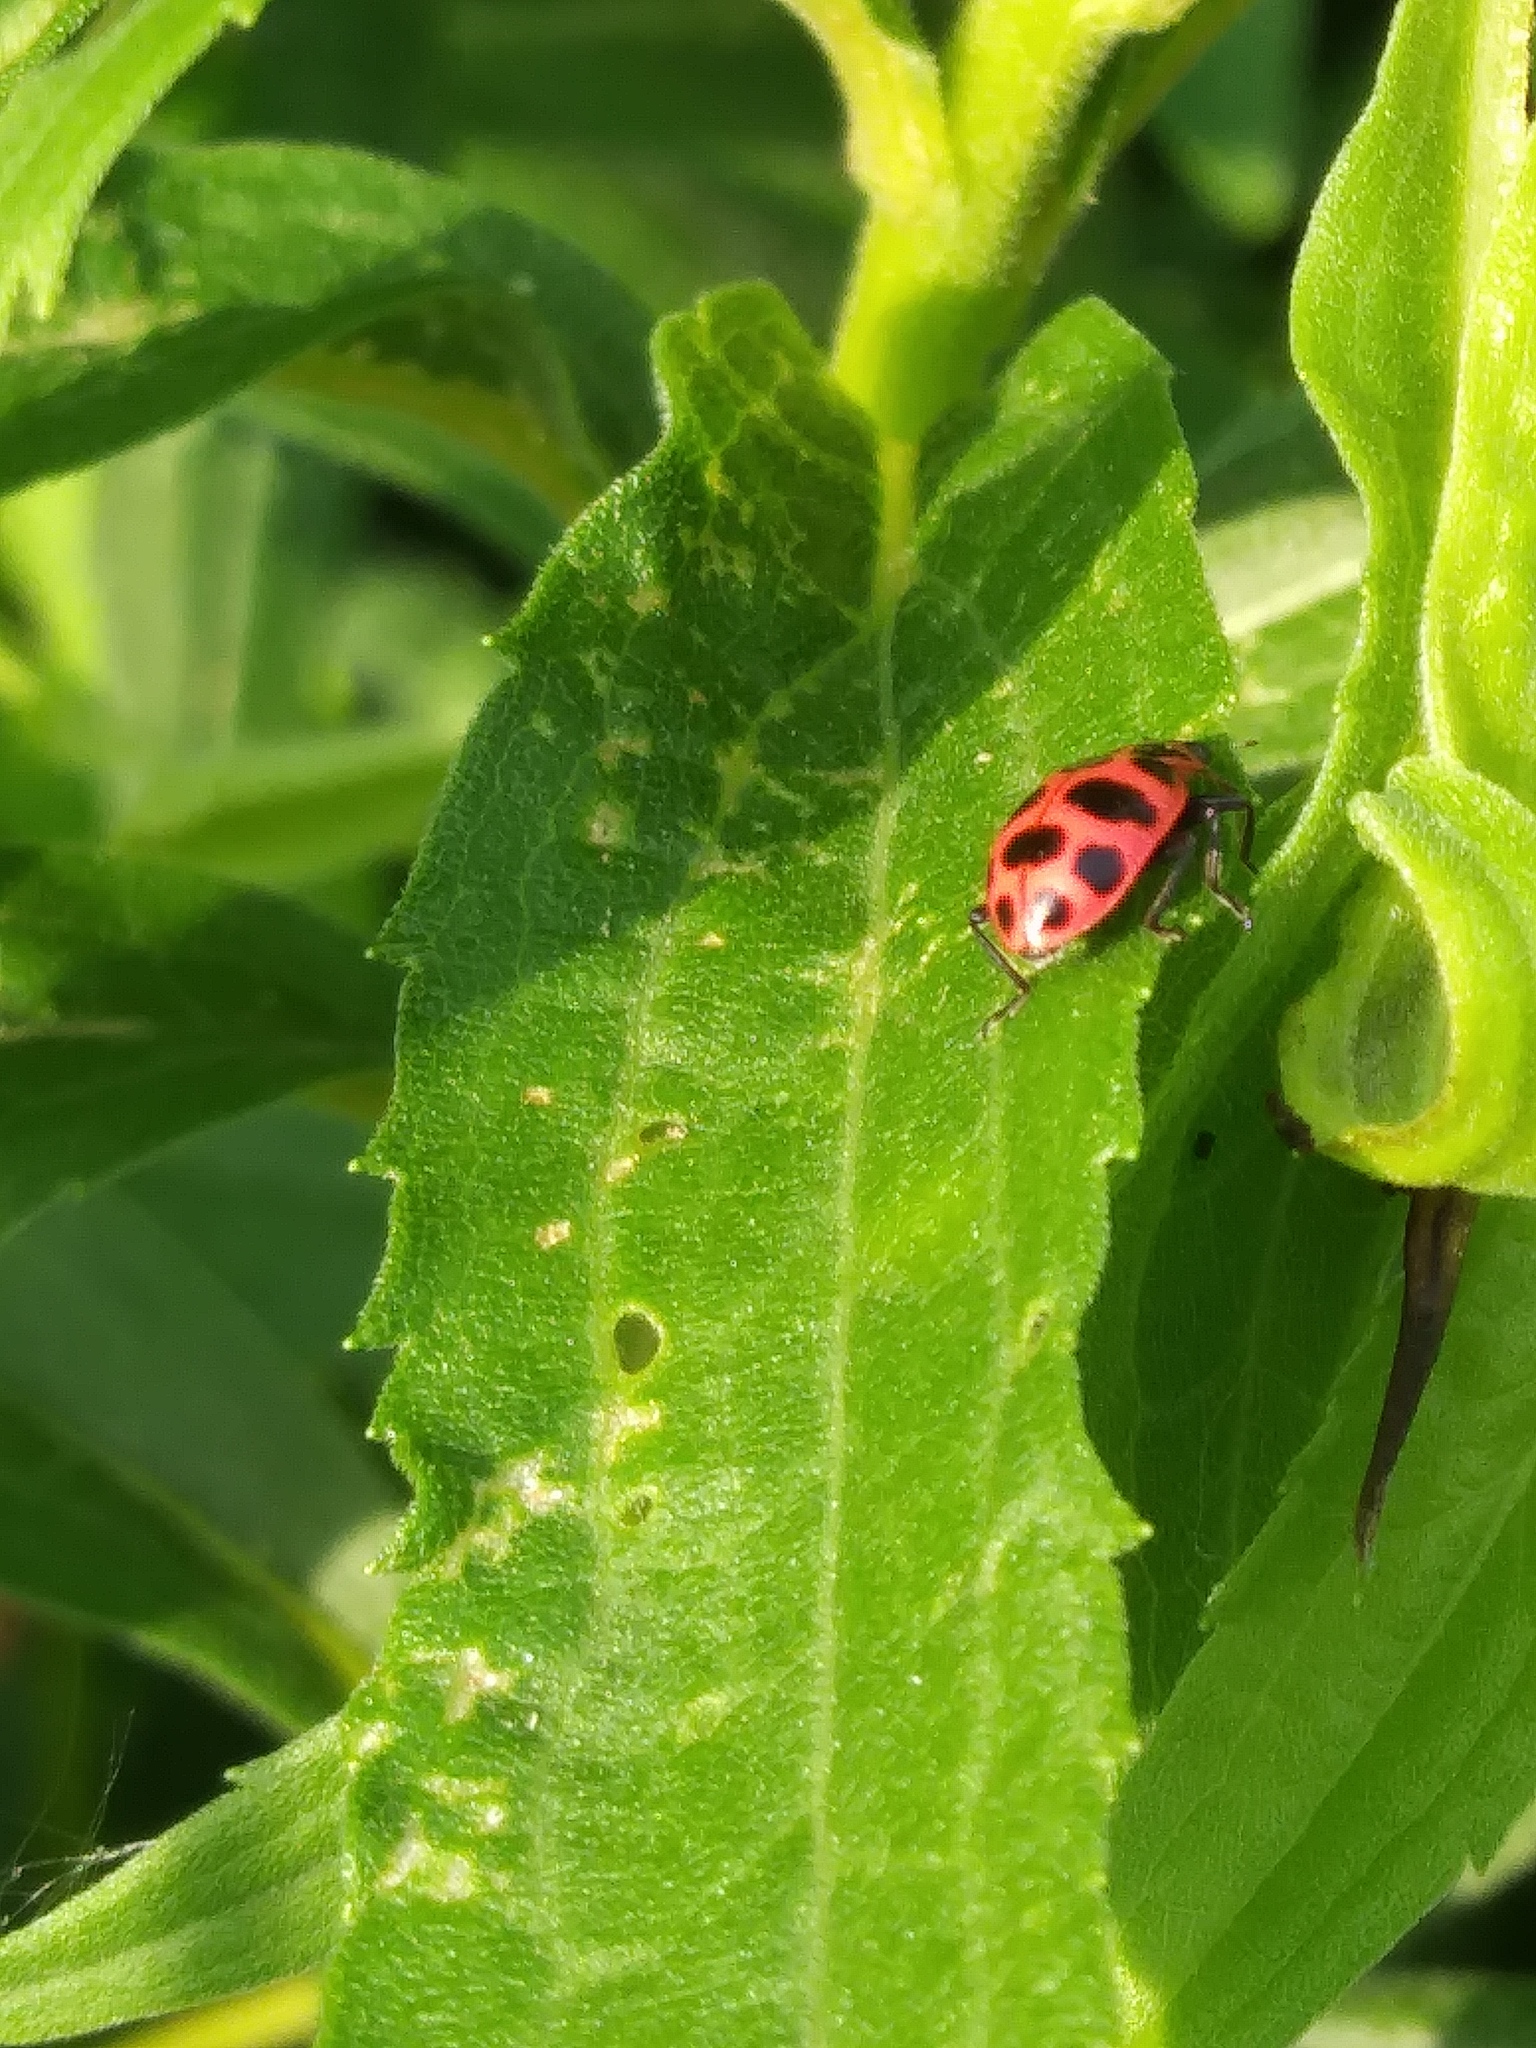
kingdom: Animalia
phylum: Arthropoda
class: Insecta
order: Coleoptera
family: Coccinellidae
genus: Coleomegilla
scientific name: Coleomegilla maculata
